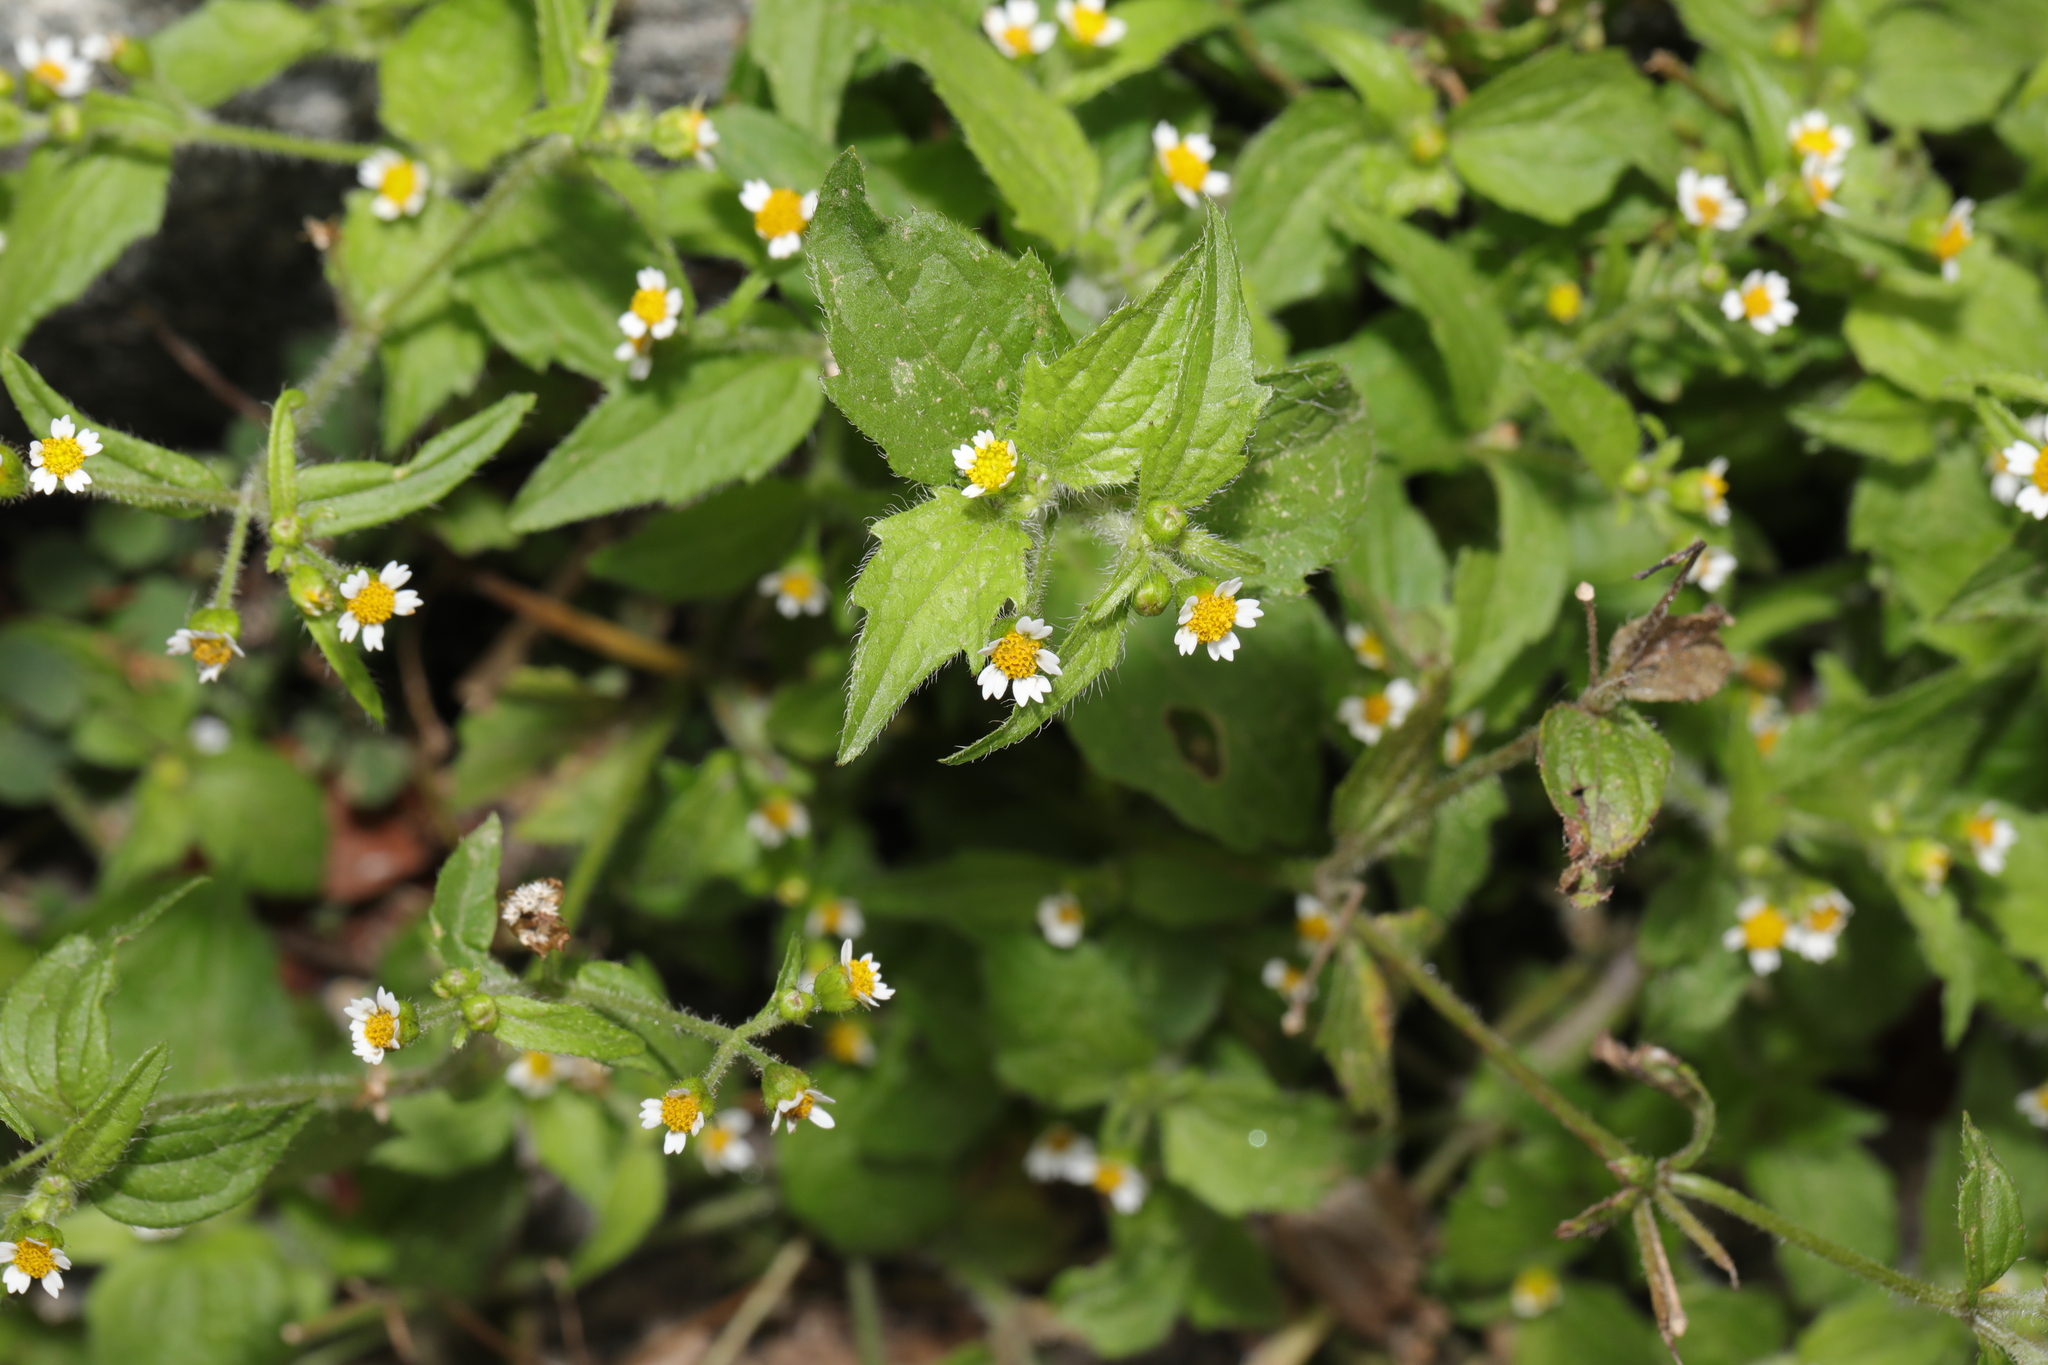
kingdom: Plantae
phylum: Tracheophyta
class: Magnoliopsida
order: Asterales
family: Asteraceae
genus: Galinsoga
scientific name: Galinsoga quadriradiata
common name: Shaggy soldier
